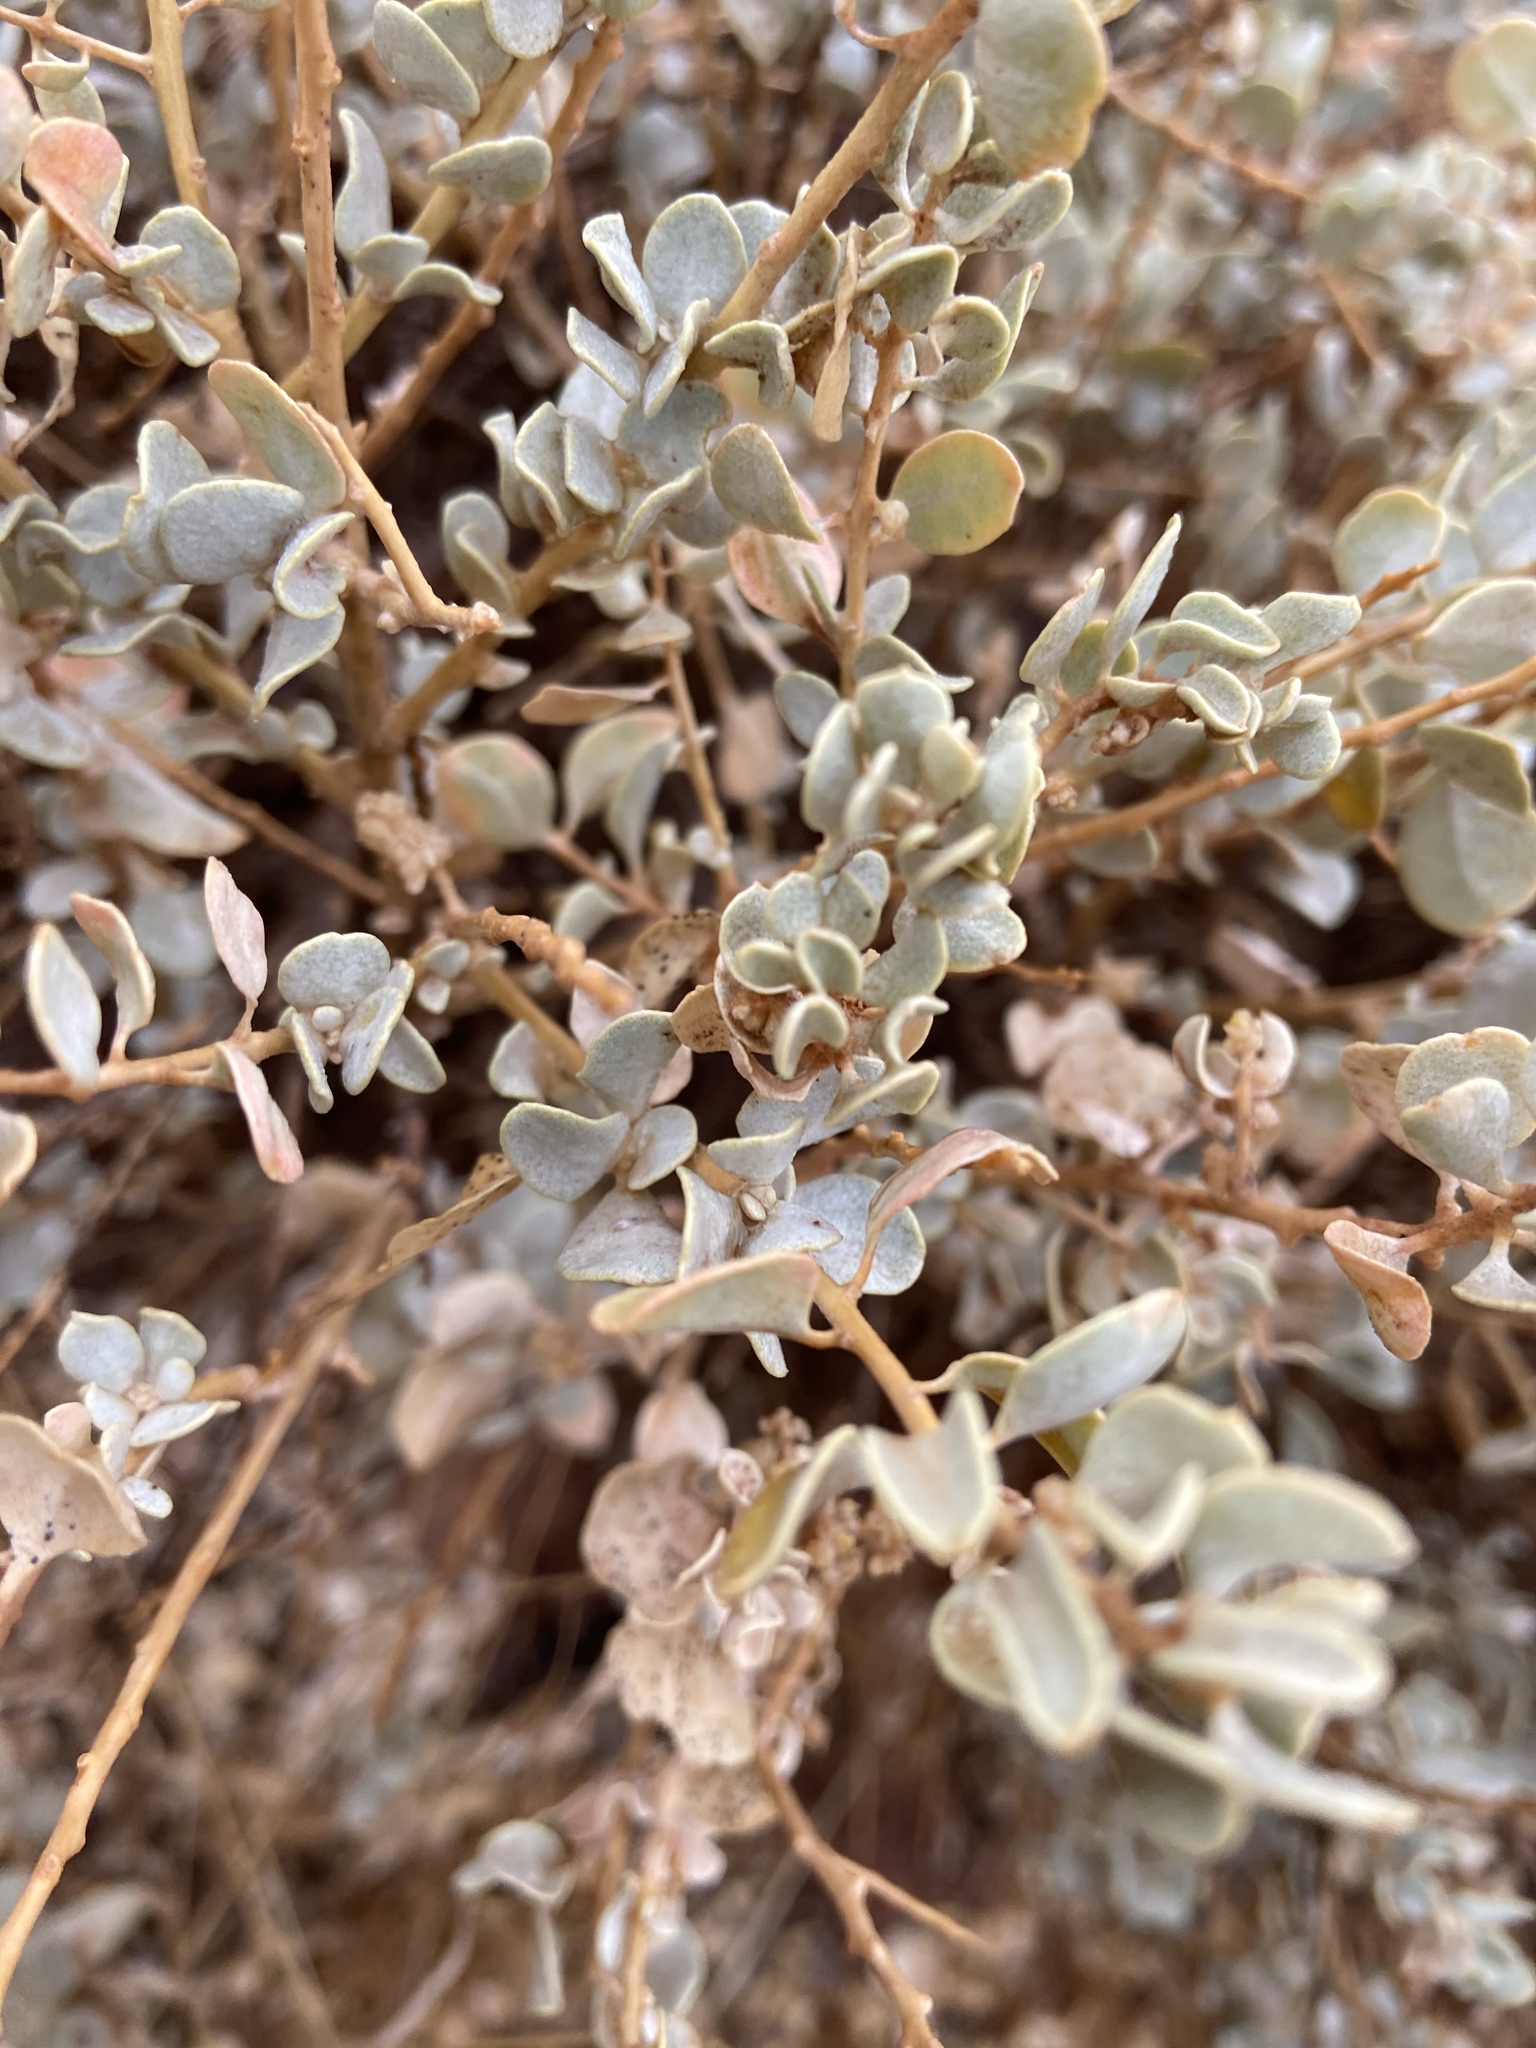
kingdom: Plantae
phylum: Tracheophyta
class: Magnoliopsida
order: Caryophyllales
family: Amaranthaceae
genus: Atriplex
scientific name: Atriplex confertifolia
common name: Shadscale
